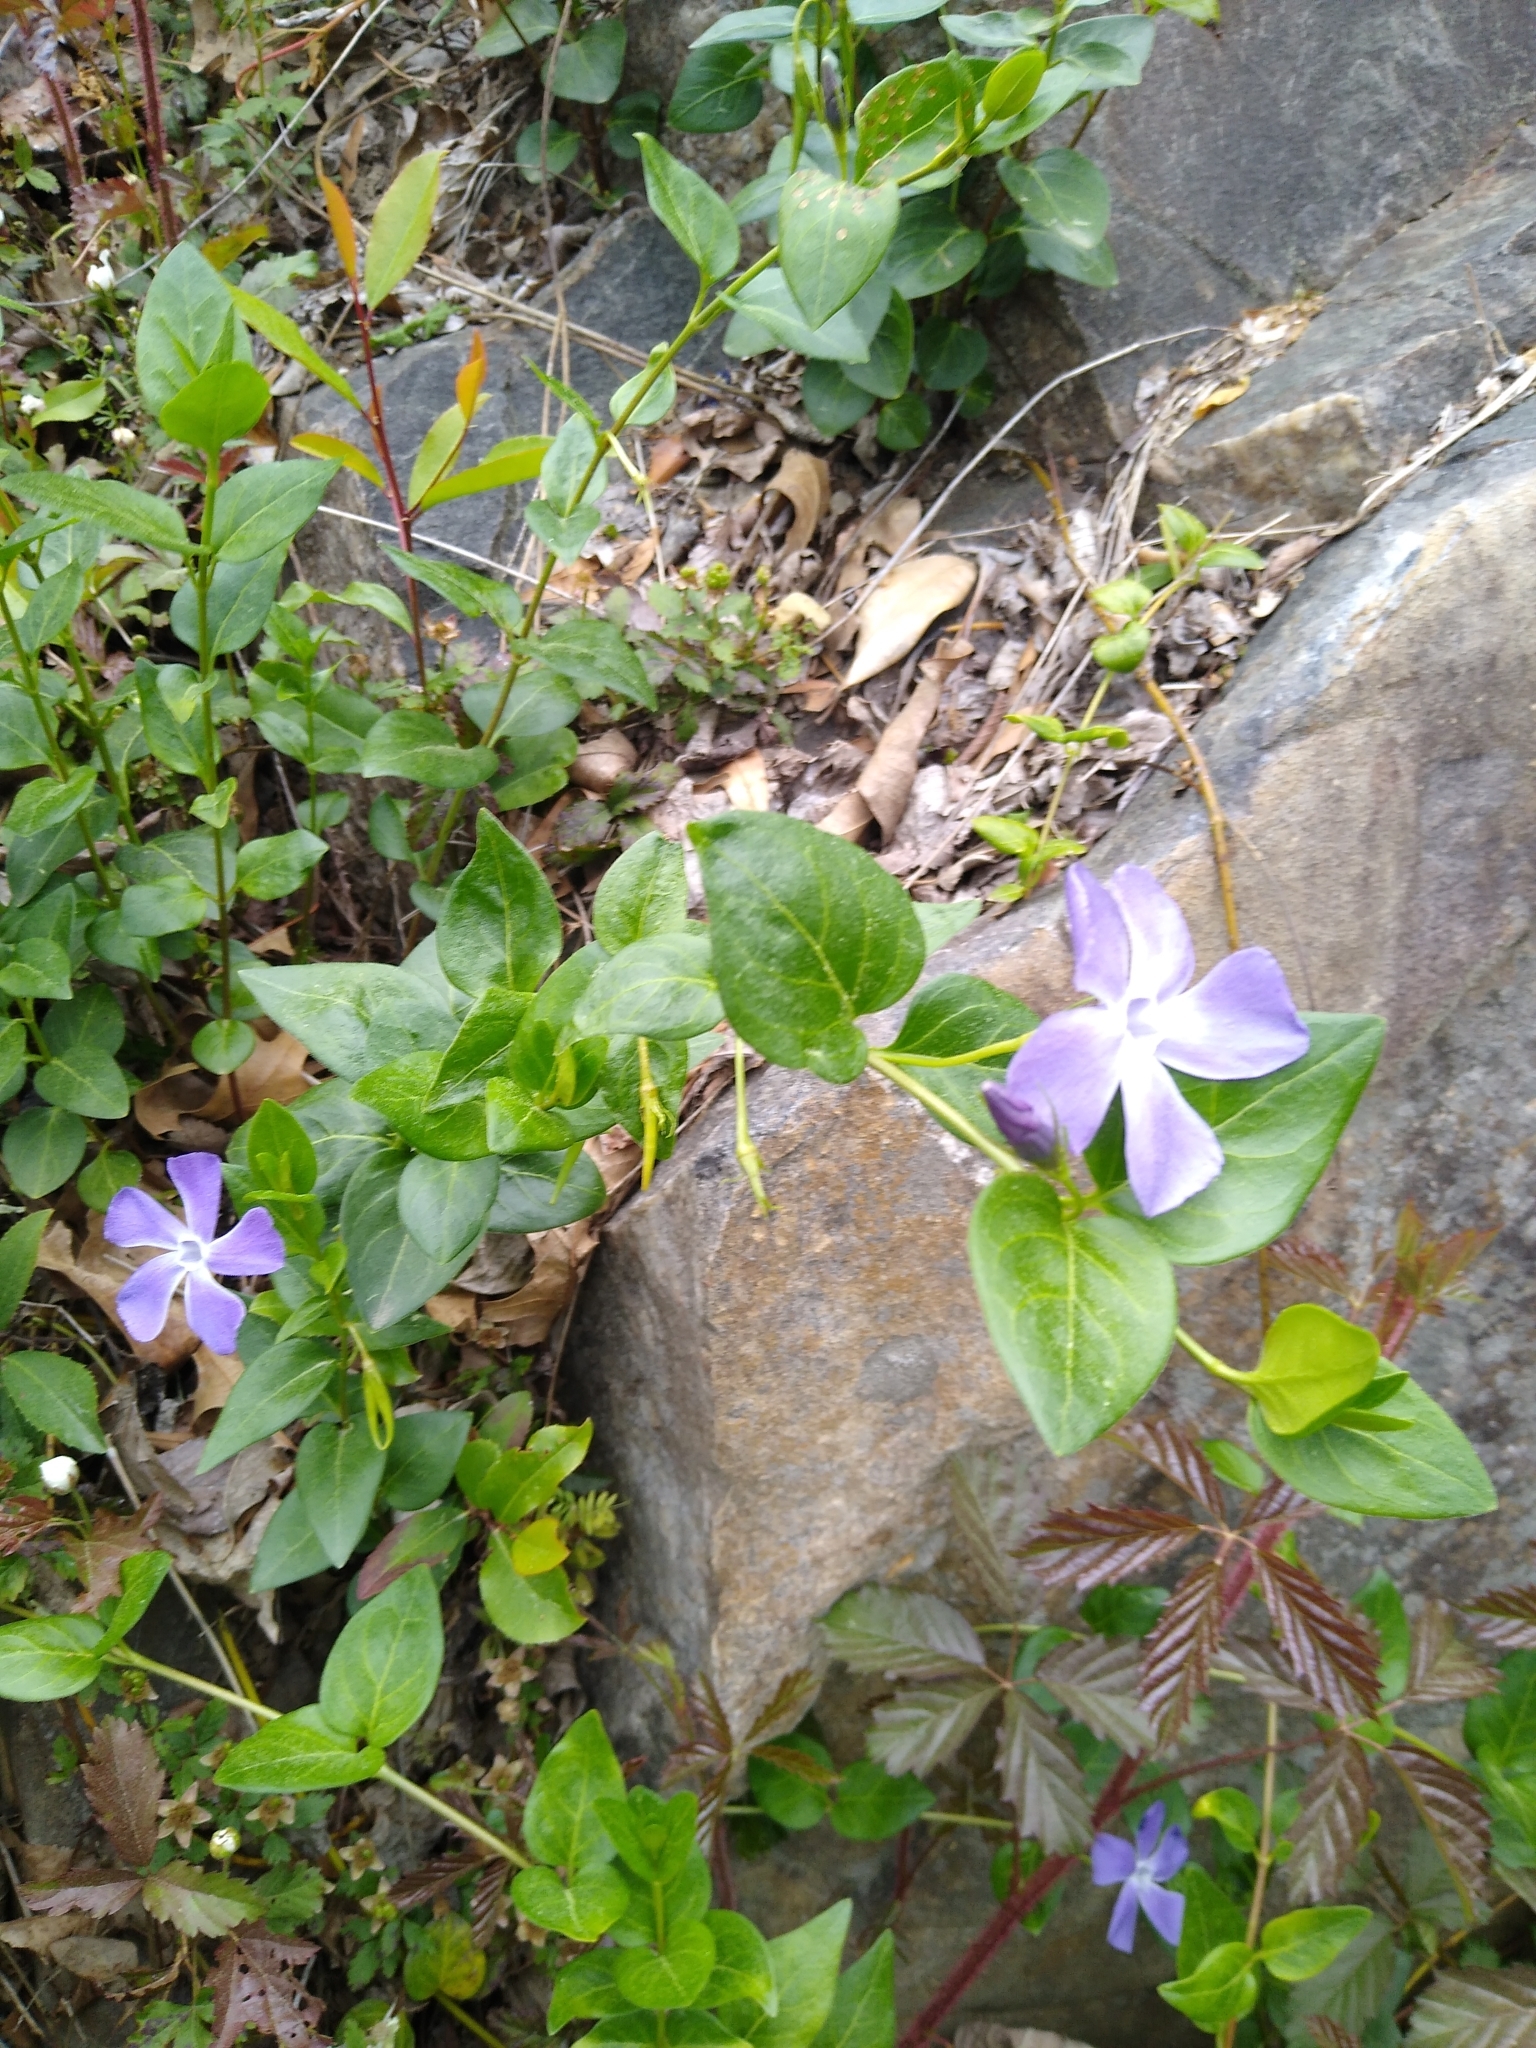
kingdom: Plantae
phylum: Tracheophyta
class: Magnoliopsida
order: Gentianales
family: Apocynaceae
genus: Vinca
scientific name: Vinca major
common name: Greater periwinkle
